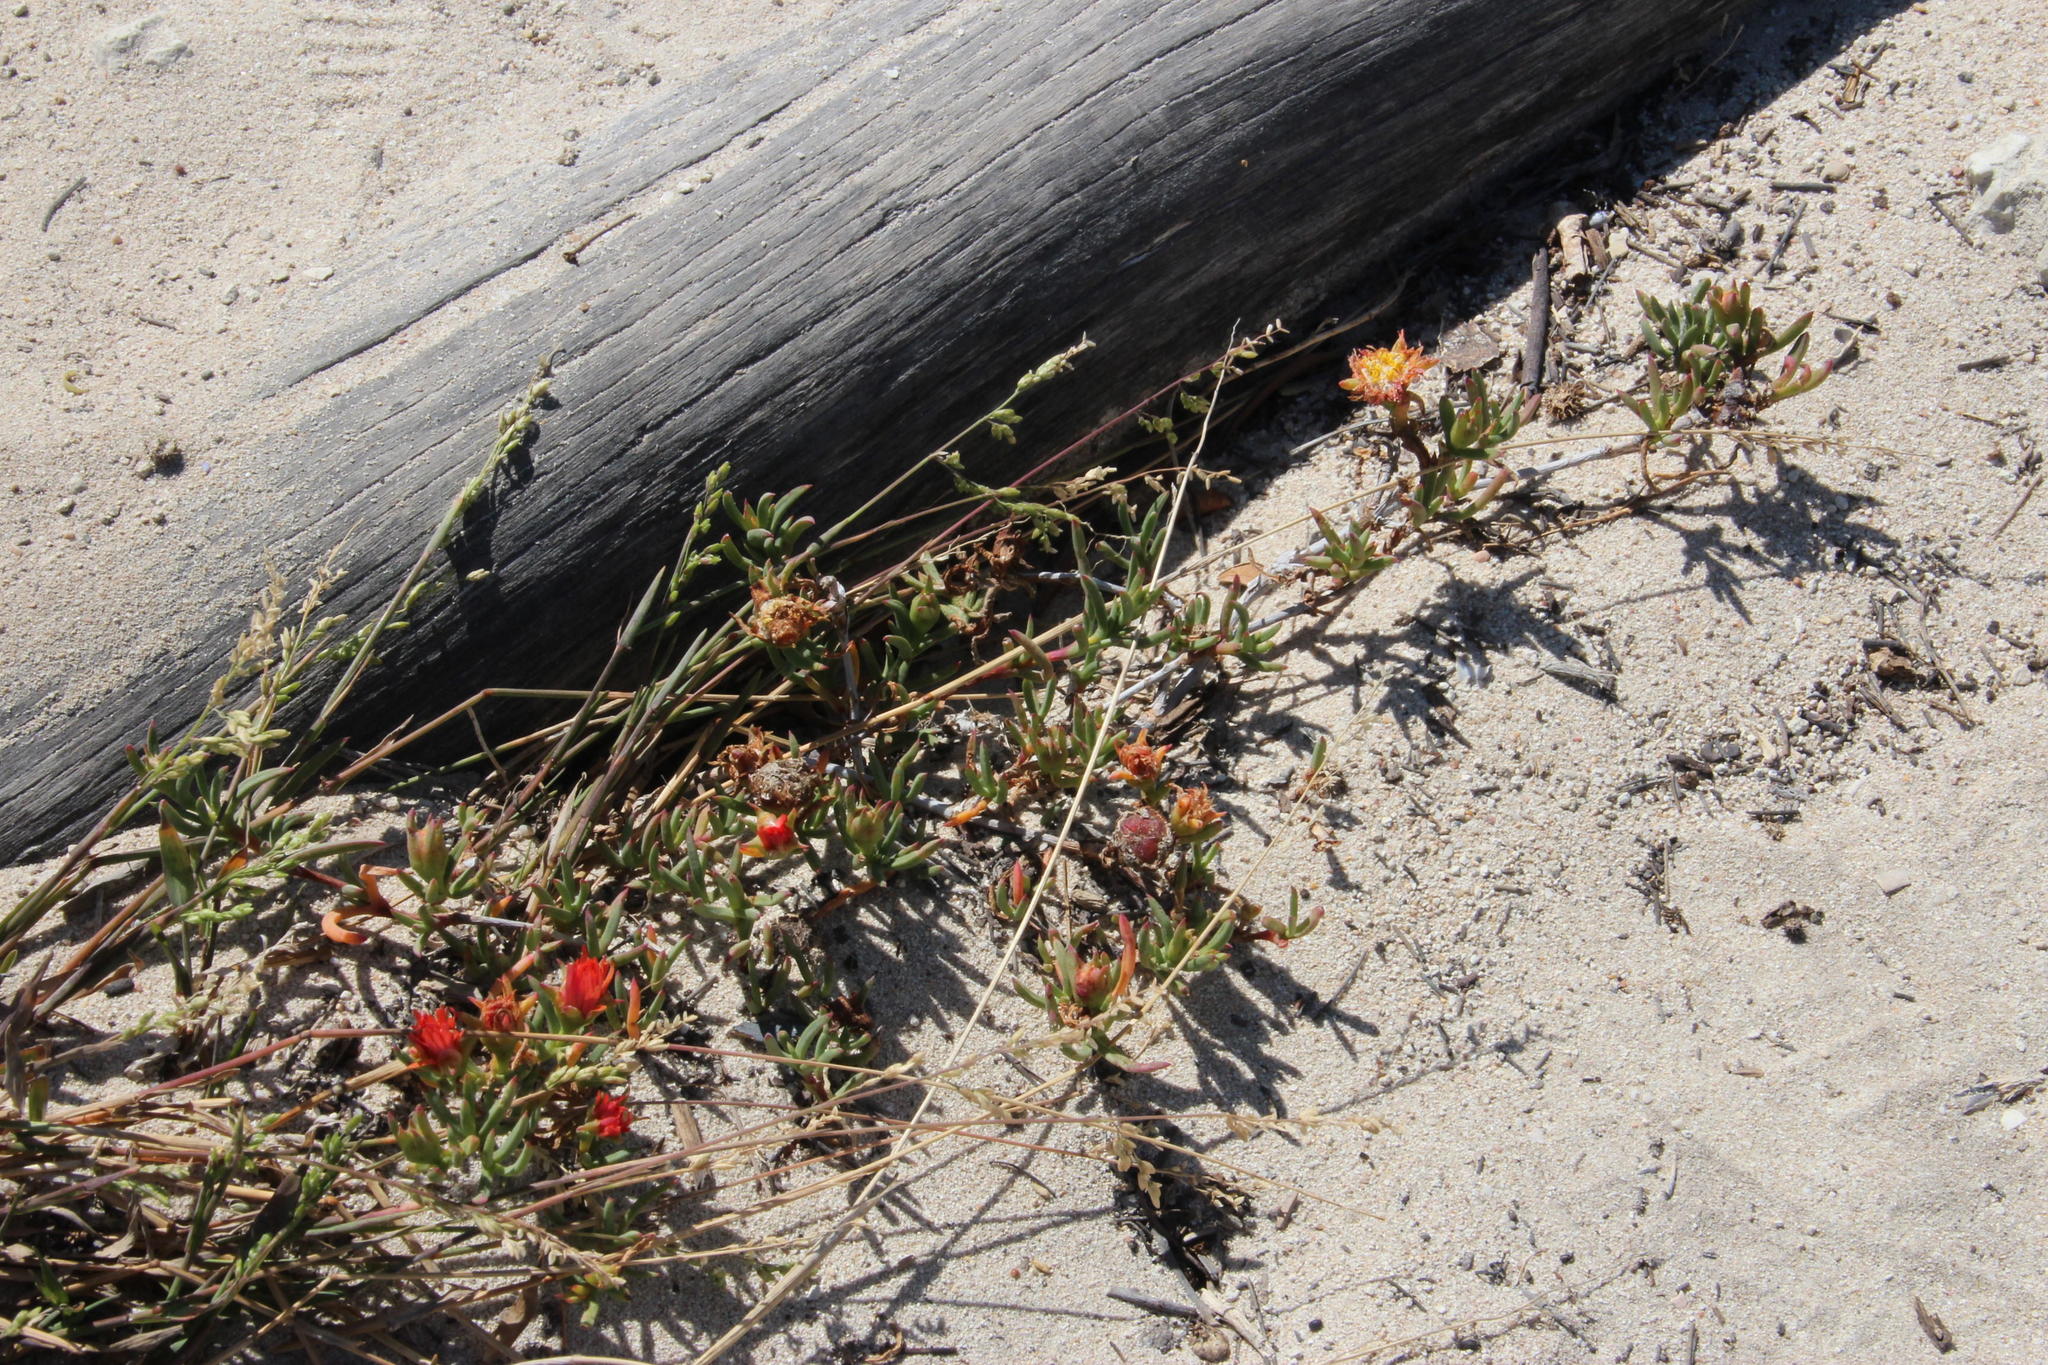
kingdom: Plantae
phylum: Tracheophyta
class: Magnoliopsida
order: Caryophyllales
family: Aizoaceae
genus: Lampranthus
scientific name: Lampranthus fergusoniae
